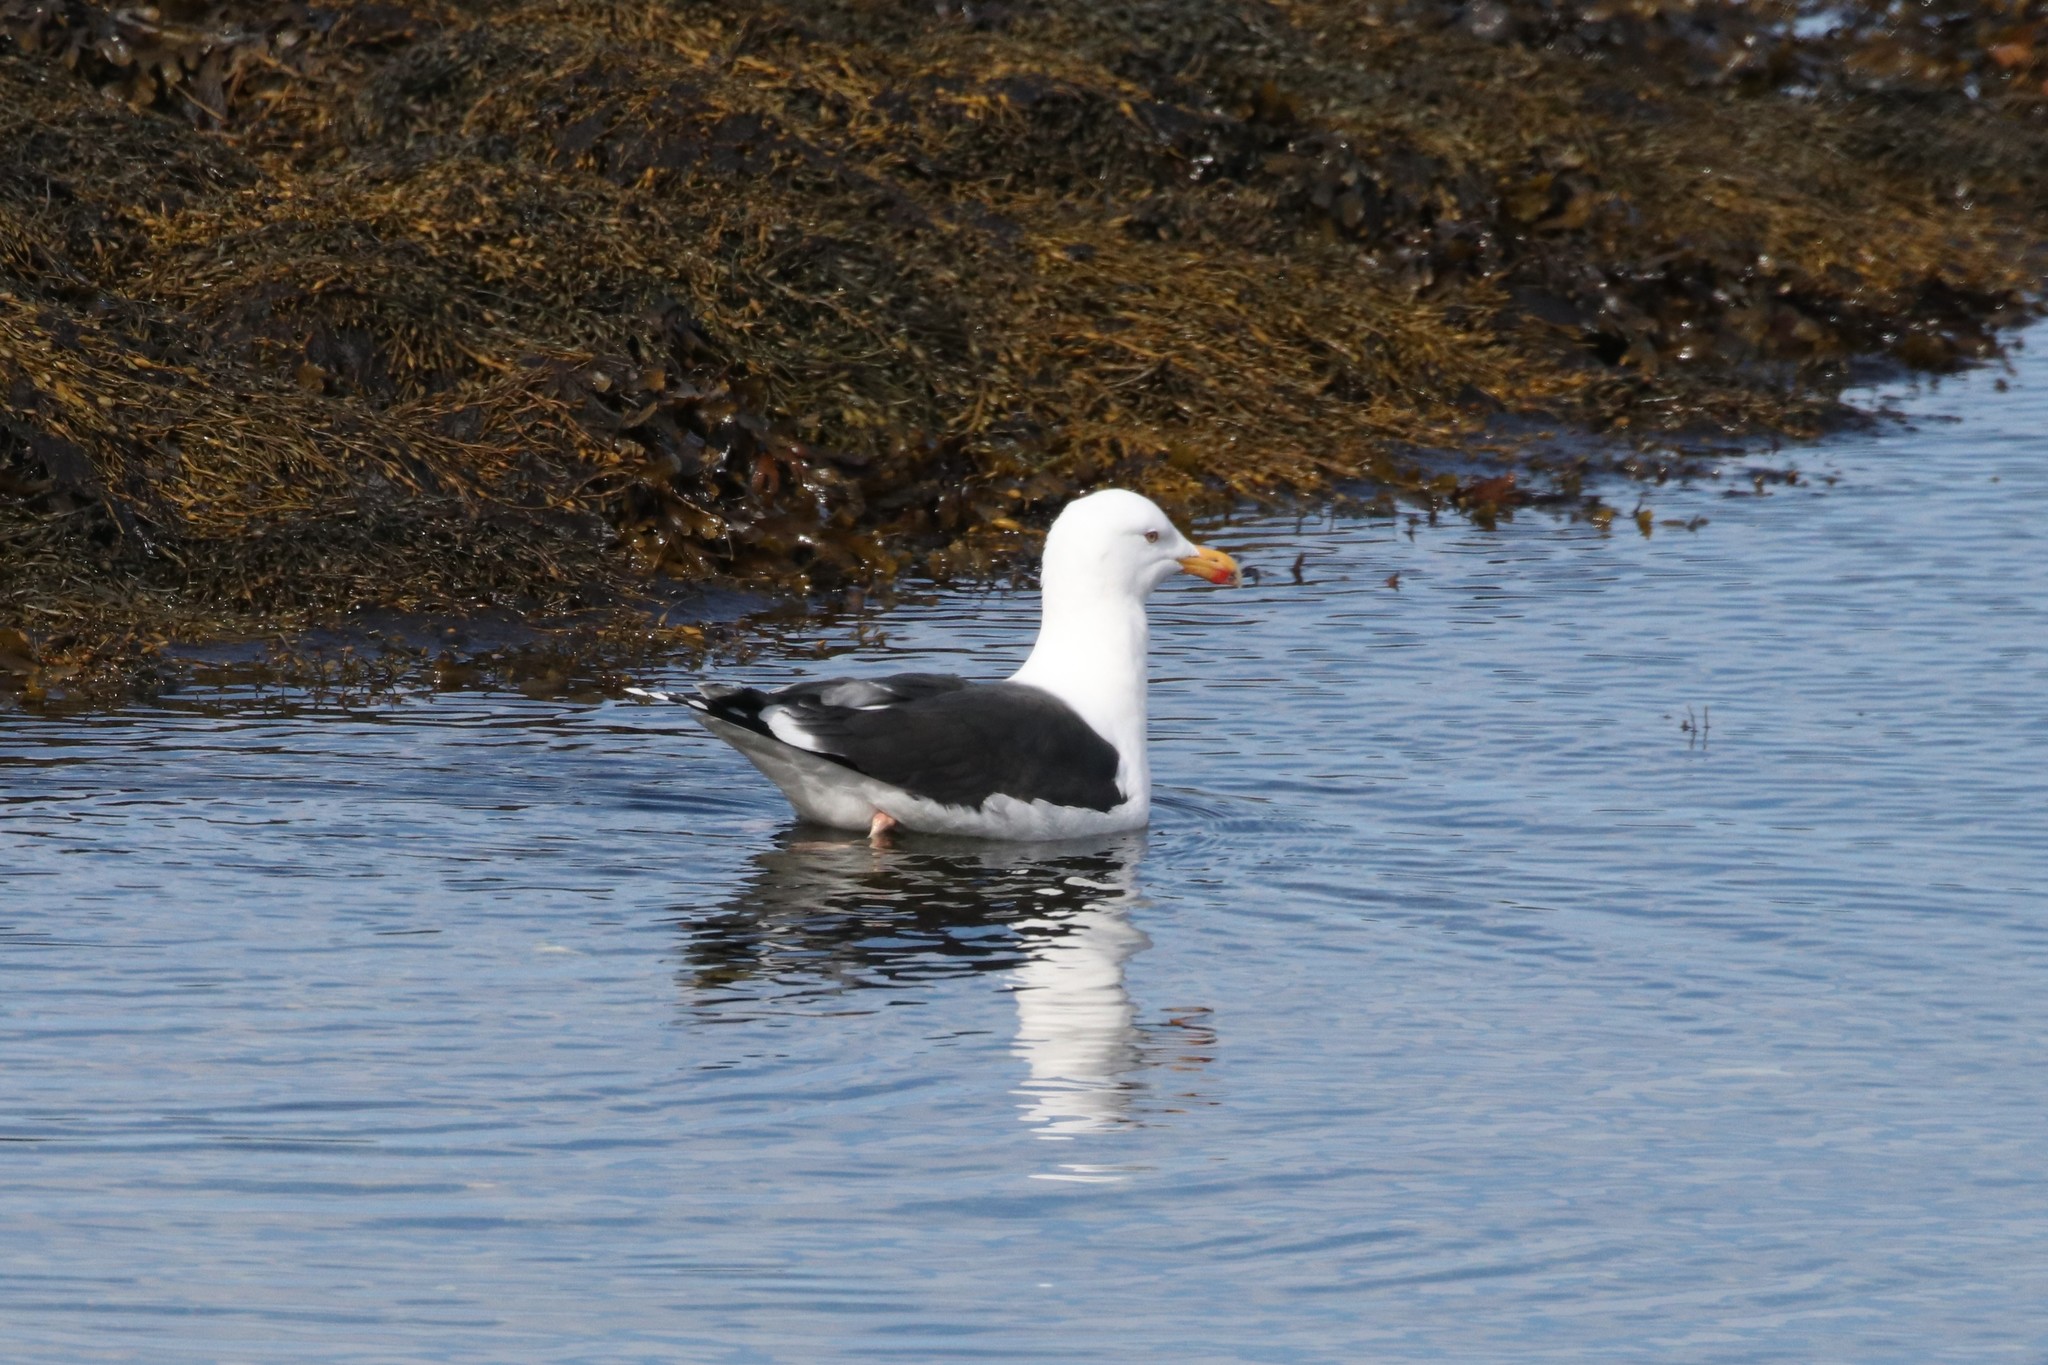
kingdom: Animalia
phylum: Chordata
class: Aves
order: Charadriiformes
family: Laridae
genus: Larus
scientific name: Larus marinus
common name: Great black-backed gull
